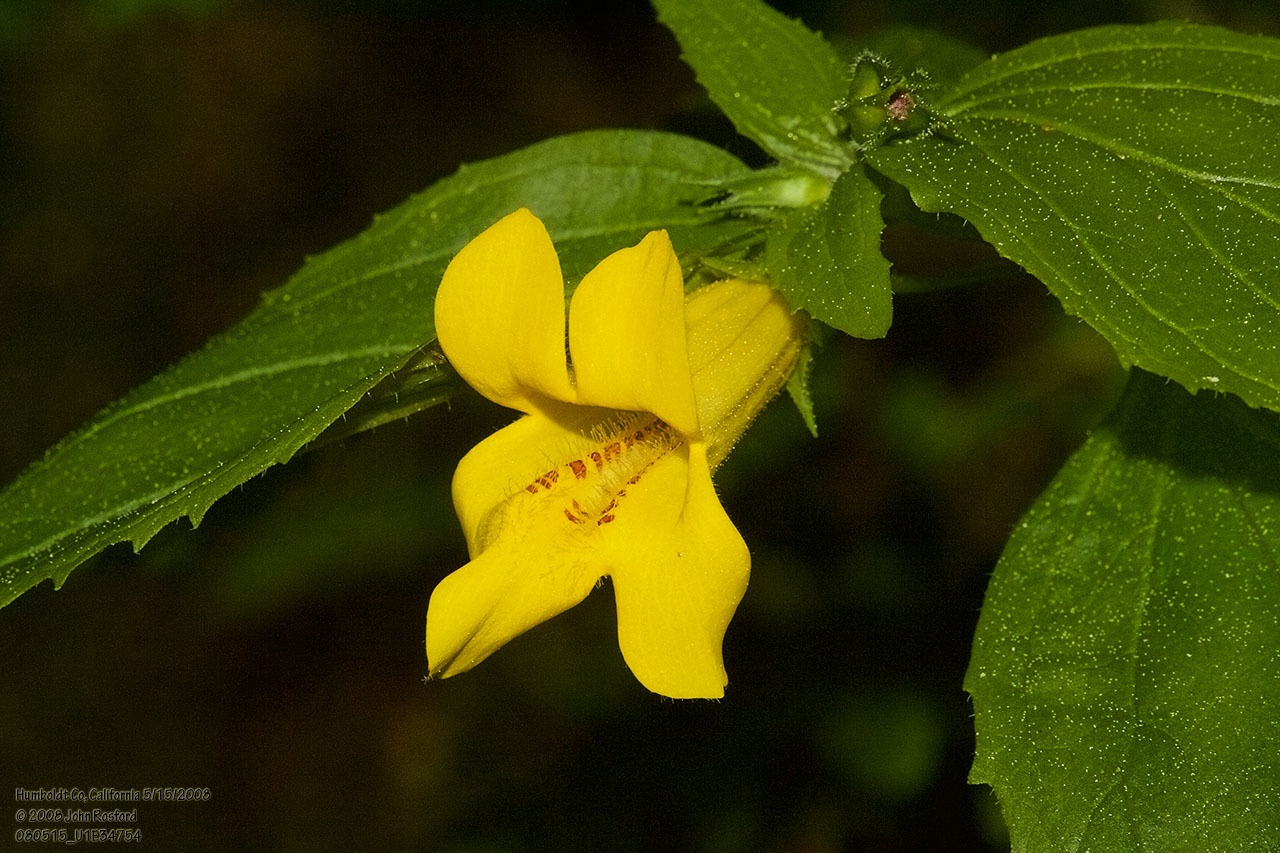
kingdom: Plantae
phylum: Tracheophyta
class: Magnoliopsida
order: Lamiales
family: Phrymaceae
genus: Erythranthe
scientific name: Erythranthe dentata
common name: Coastal monkeyflower
